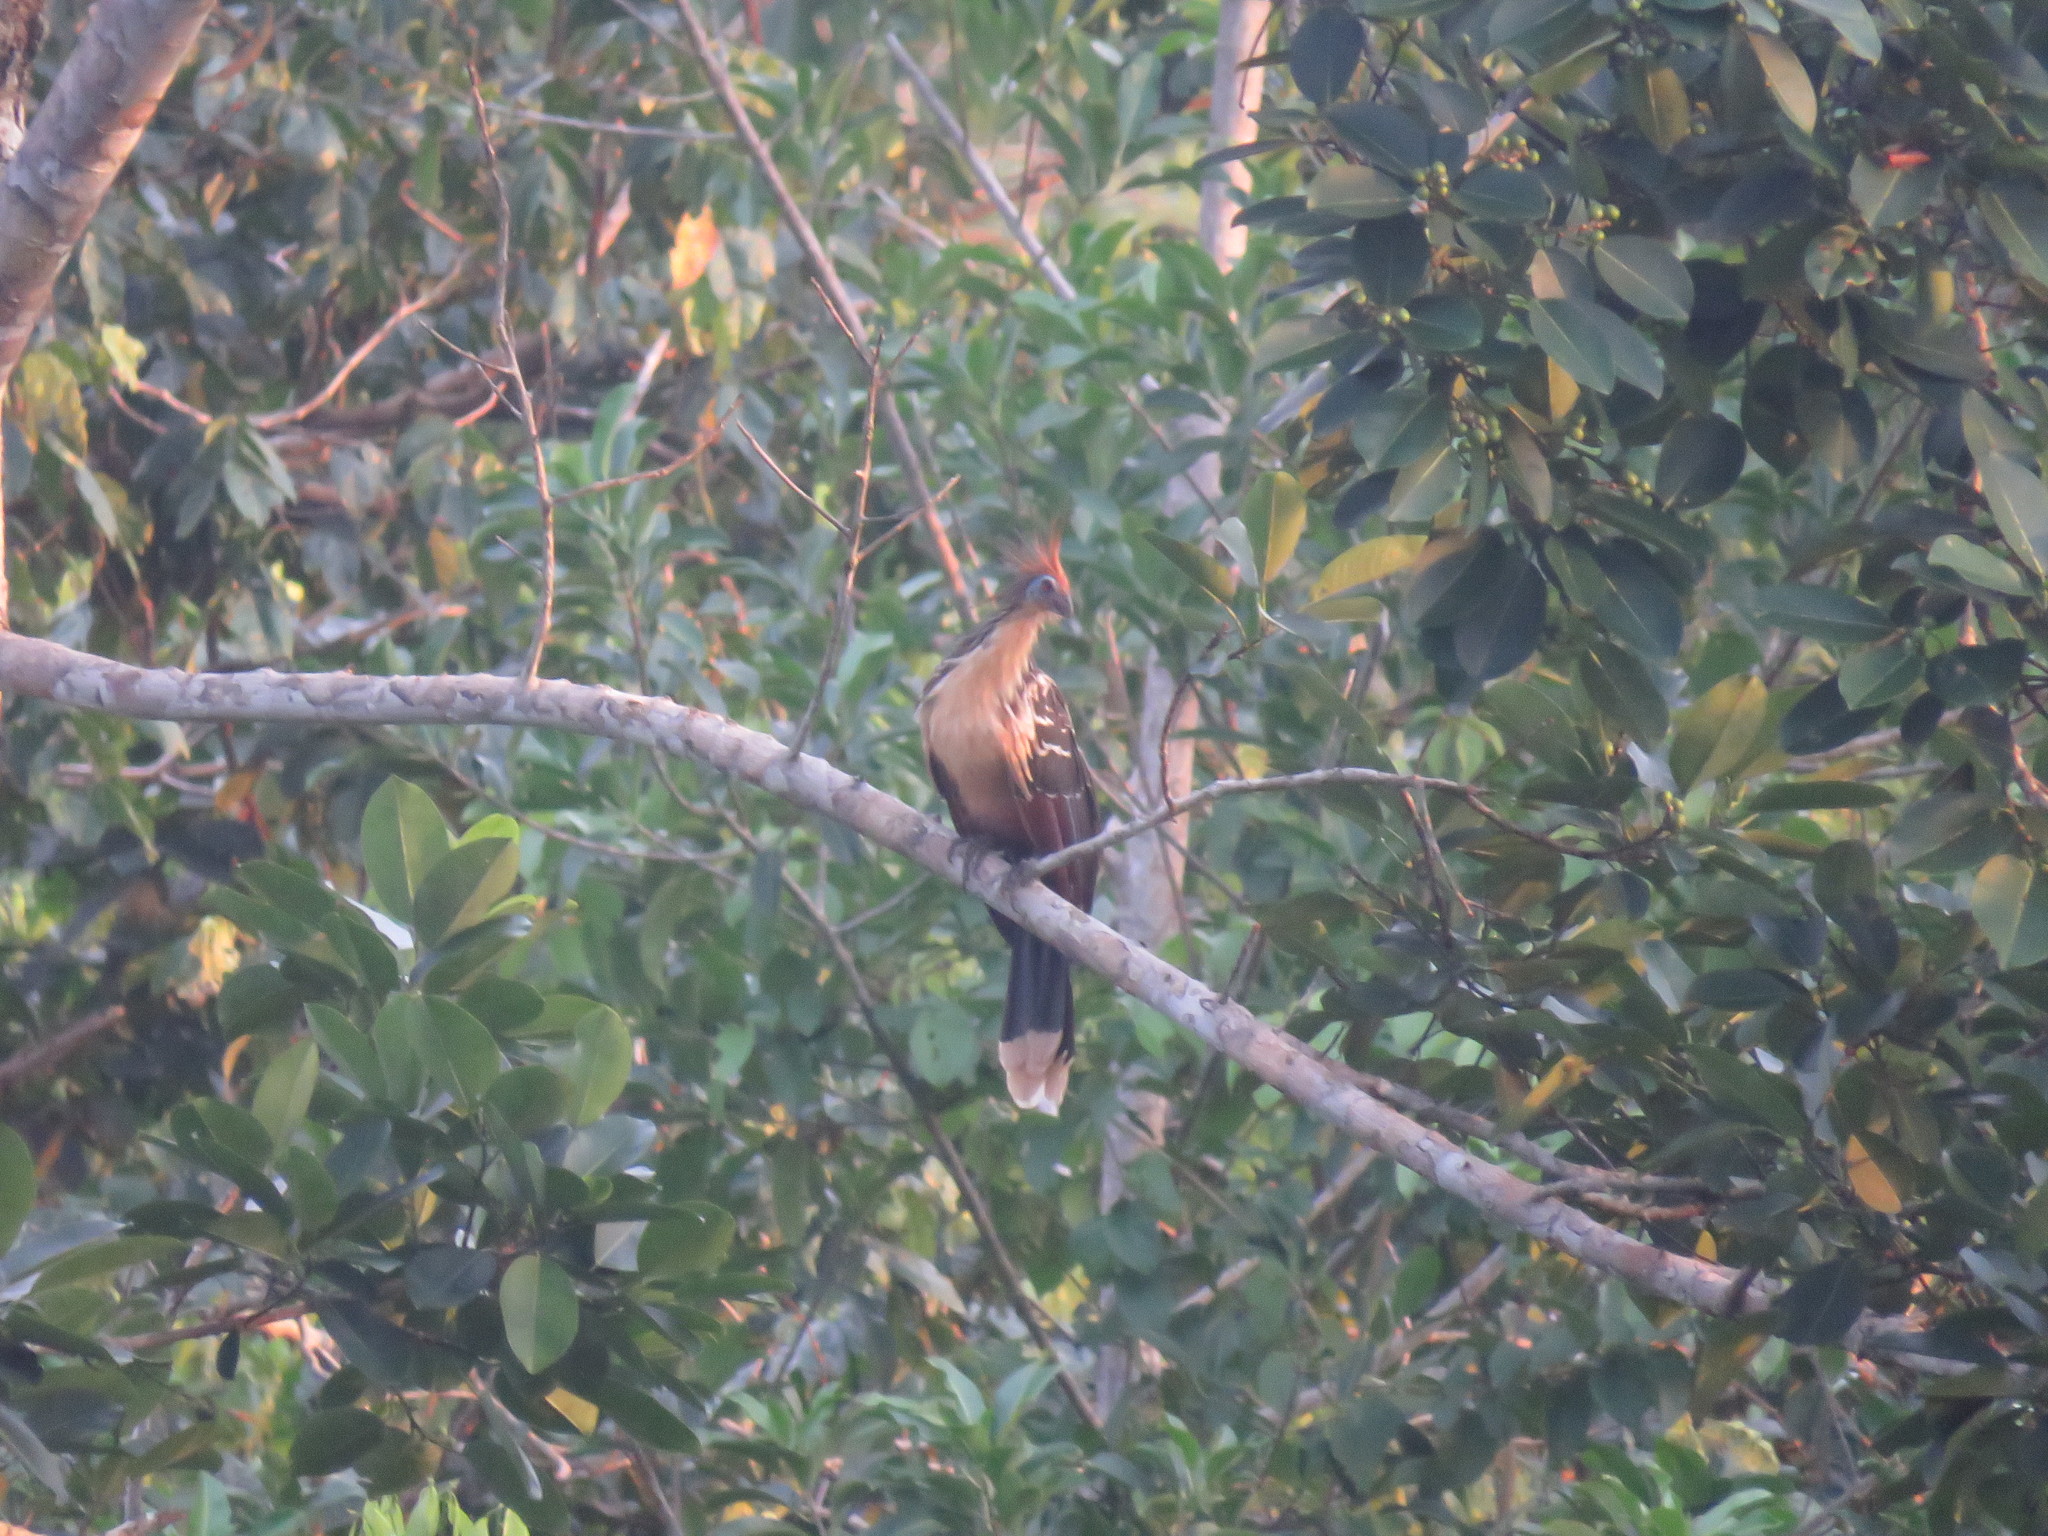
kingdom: Animalia
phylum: Chordata
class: Aves
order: Opisthocomiformes
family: Opisthocomidae
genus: Opisthocomus
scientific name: Opisthocomus hoazin
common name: Hoatzin
